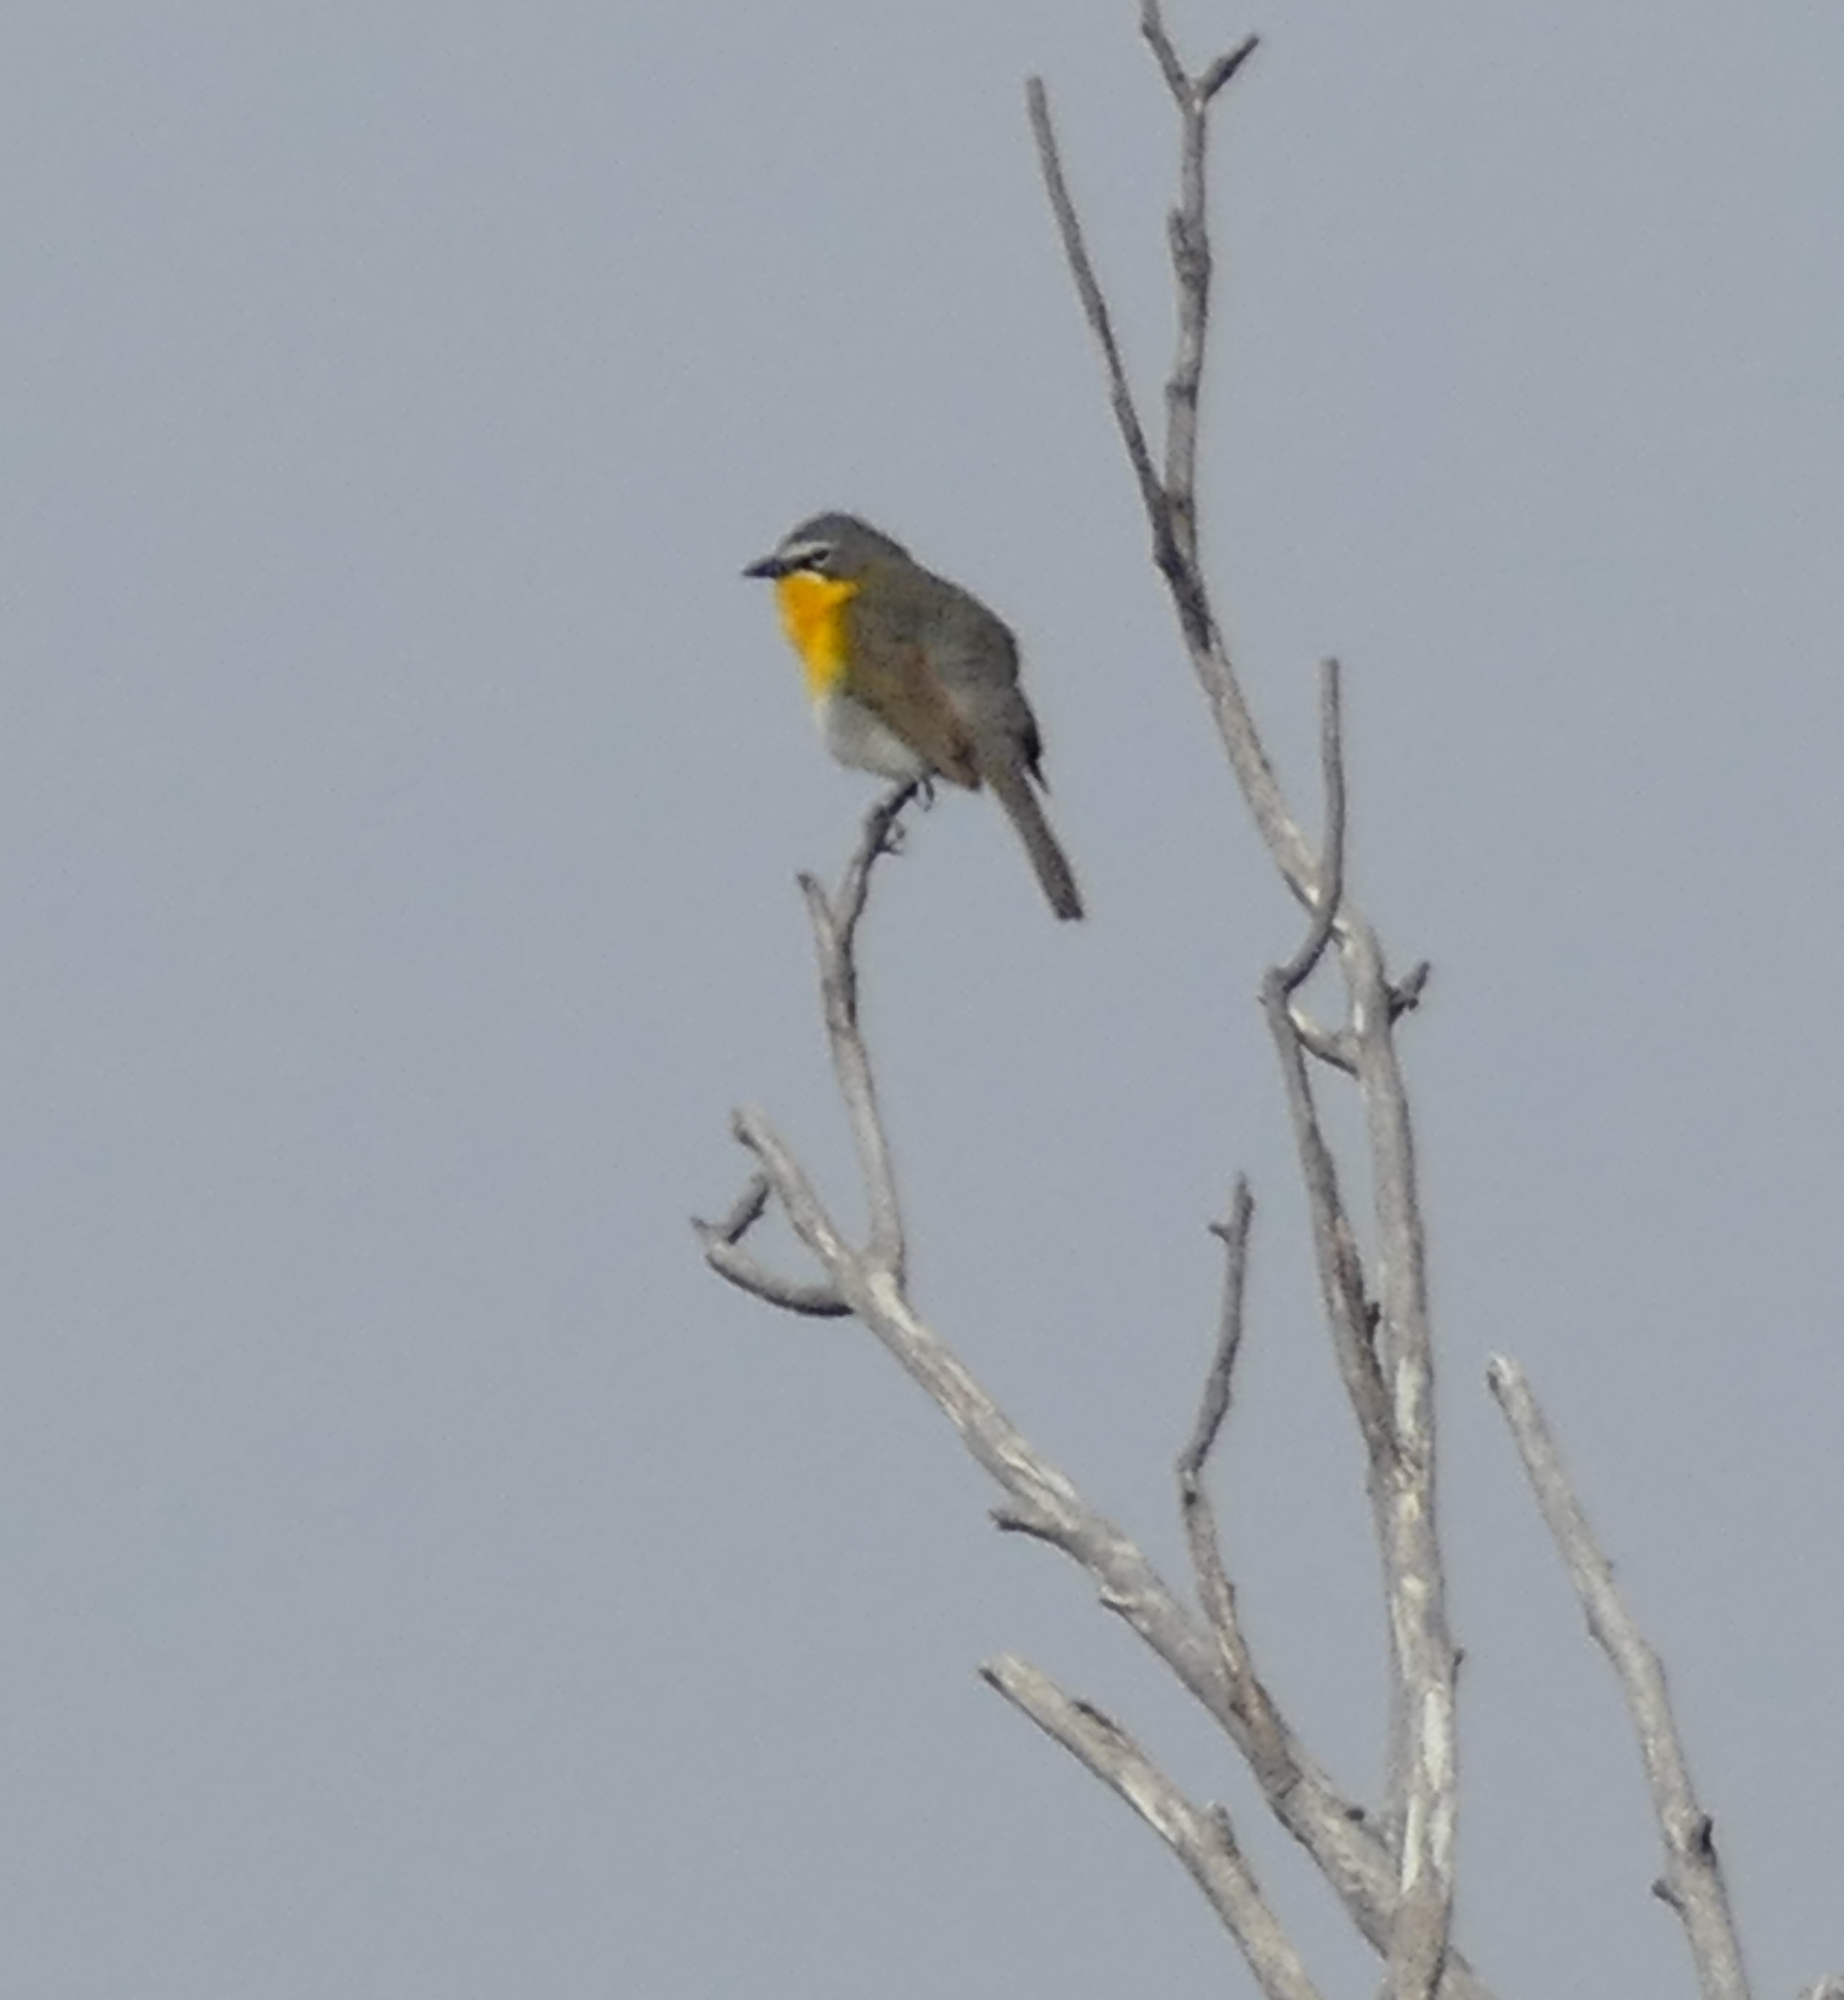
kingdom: Animalia
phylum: Chordata
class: Aves
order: Passeriformes
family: Parulidae
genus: Icteria
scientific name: Icteria virens
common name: Yellow-breasted chat
